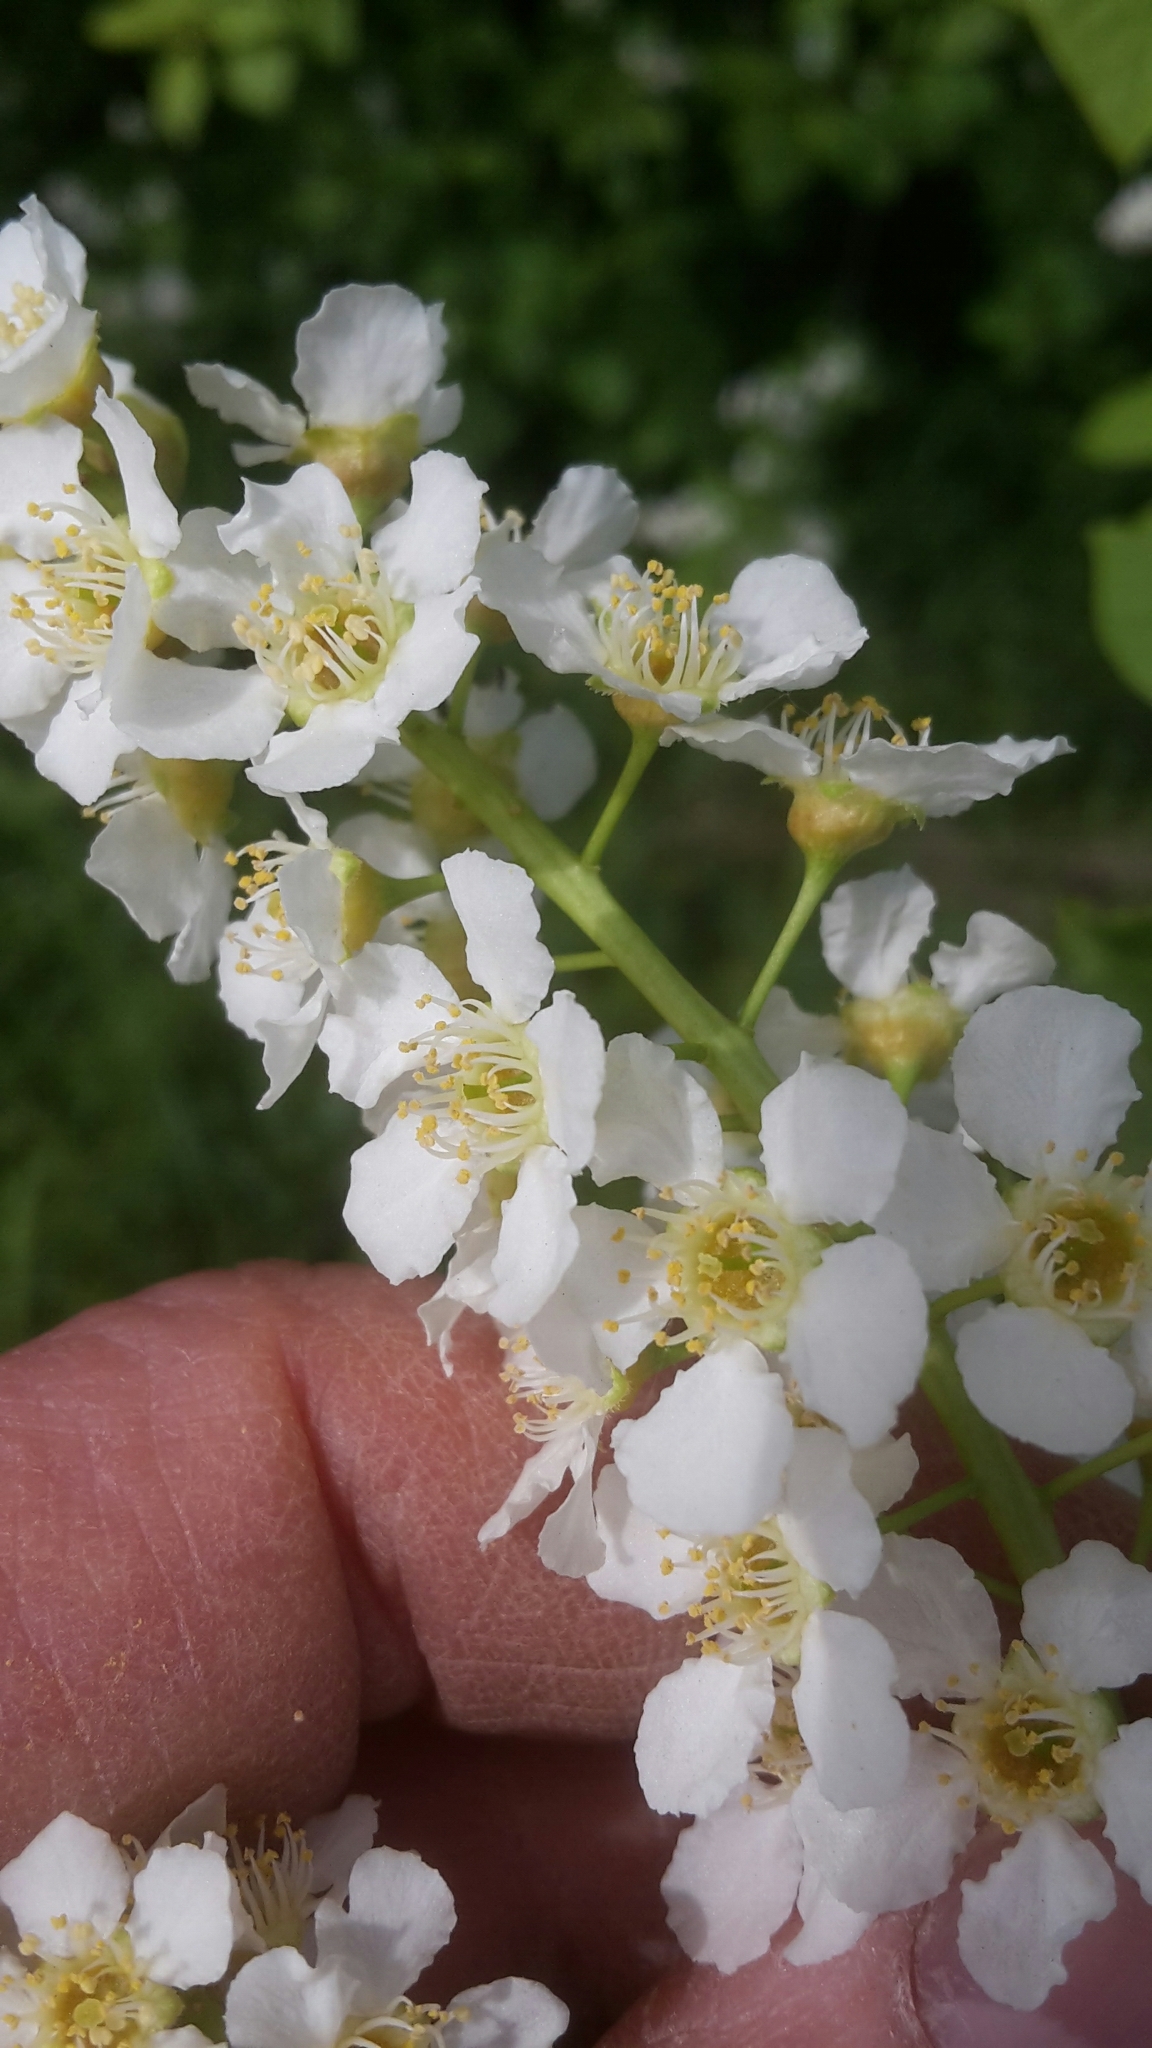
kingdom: Plantae
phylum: Tracheophyta
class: Magnoliopsida
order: Rosales
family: Rosaceae
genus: Prunus
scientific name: Prunus padus
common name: Bird cherry
